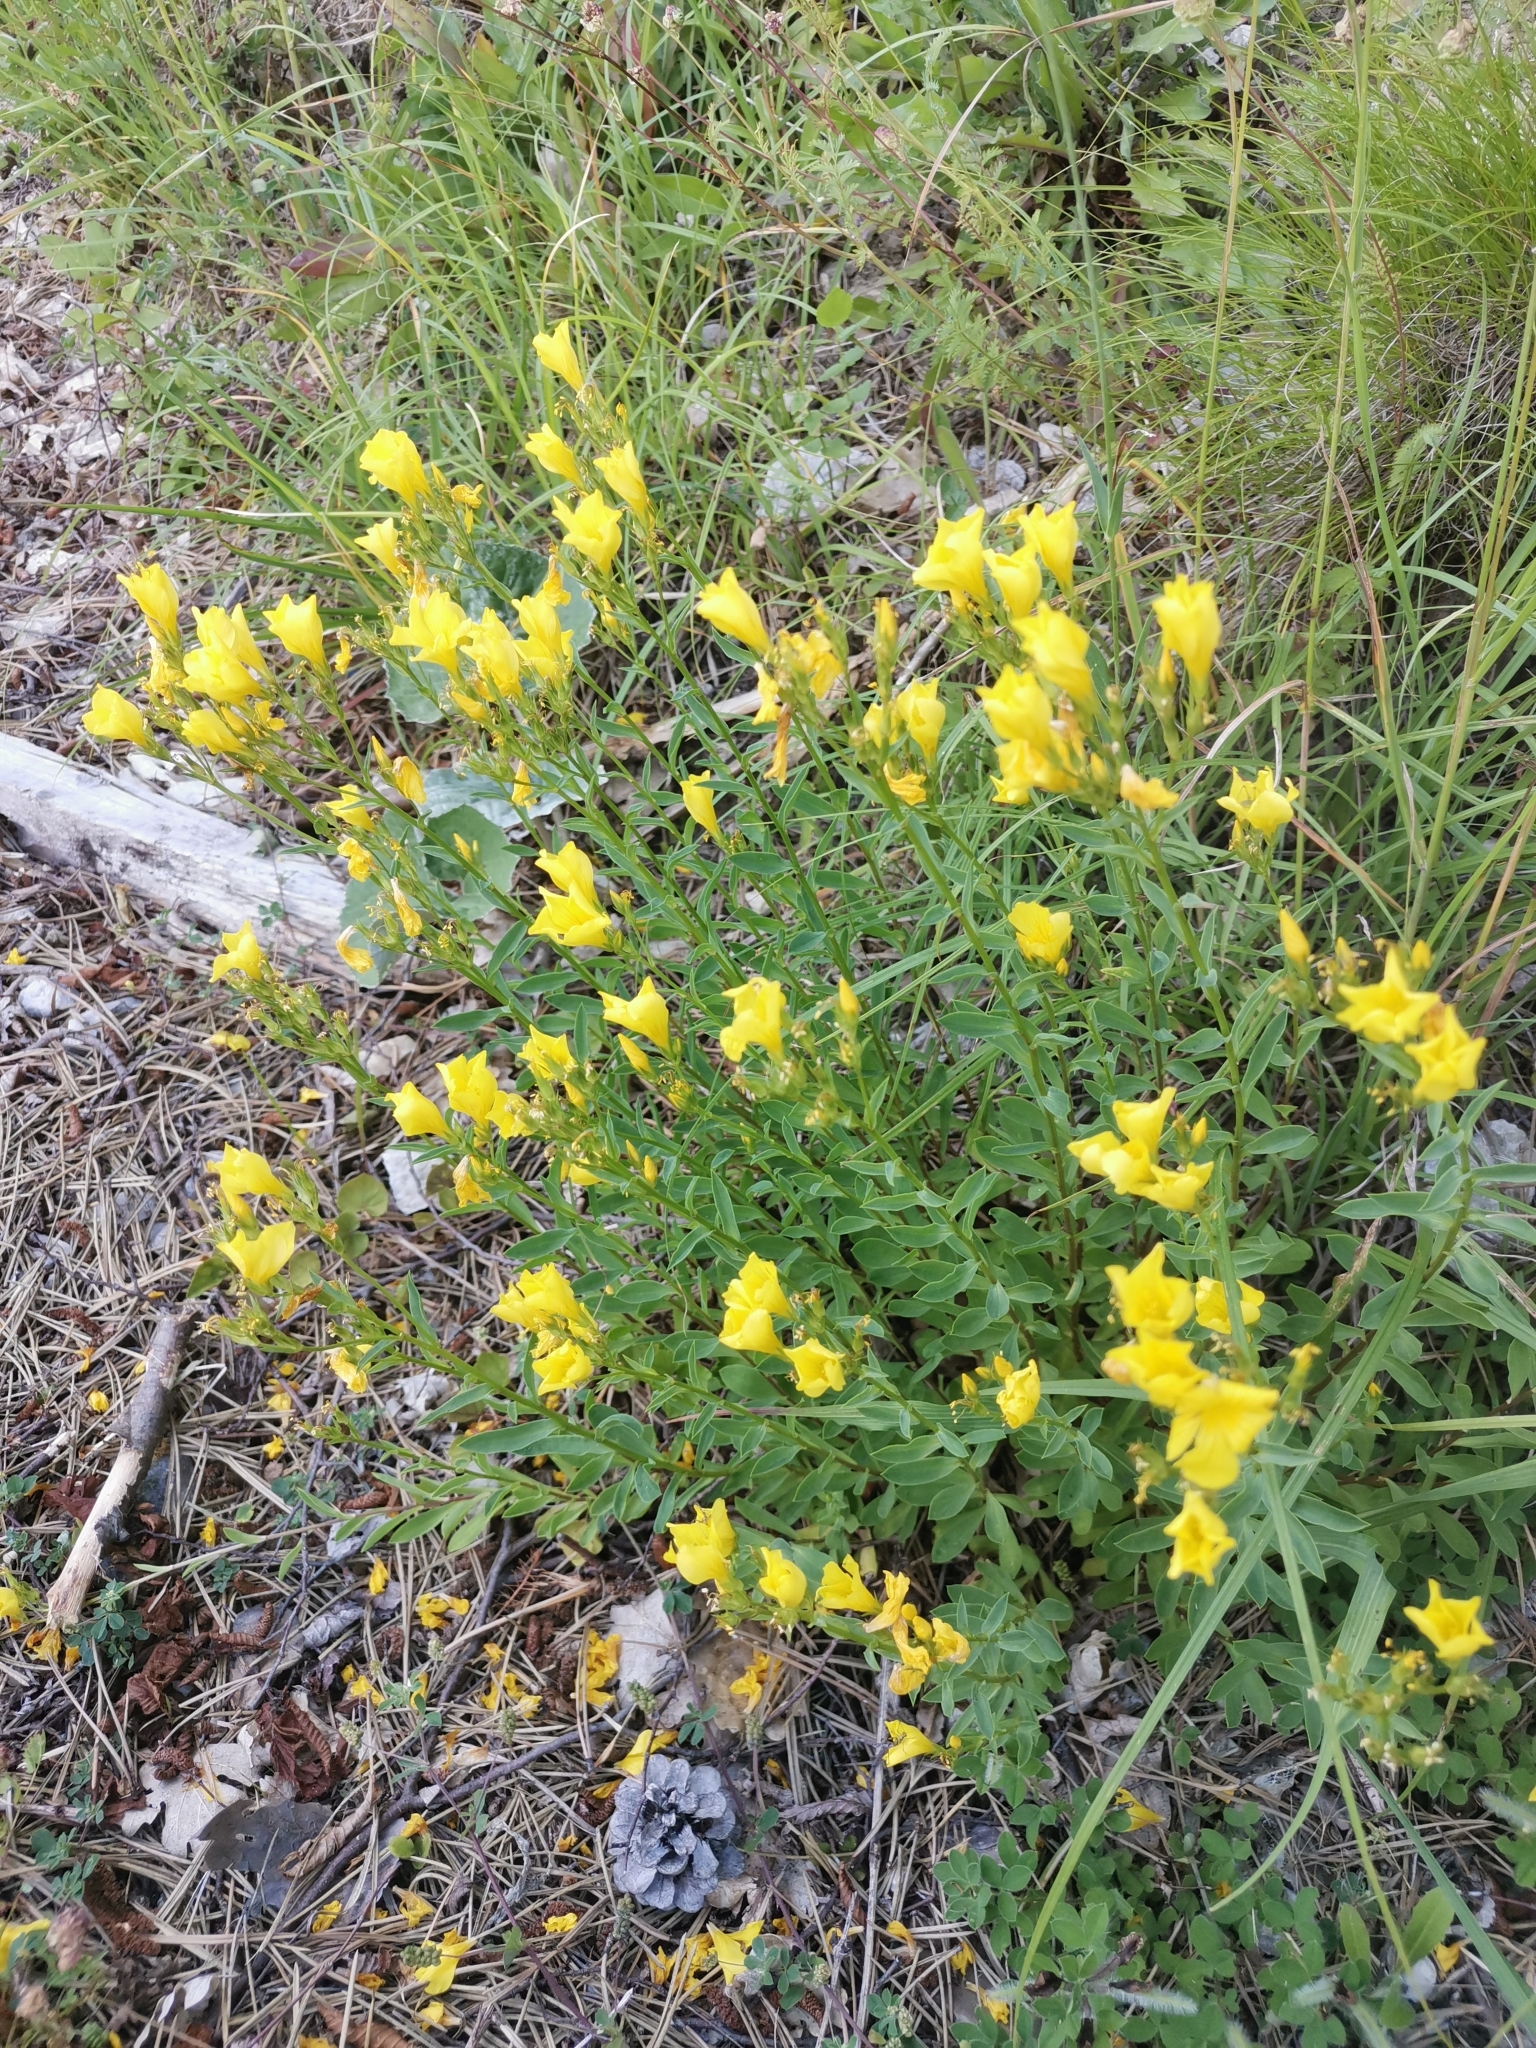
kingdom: Plantae
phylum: Tracheophyta
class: Magnoliopsida
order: Malpighiales
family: Linaceae
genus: Linum
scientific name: Linum flavum
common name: Yellow flax
